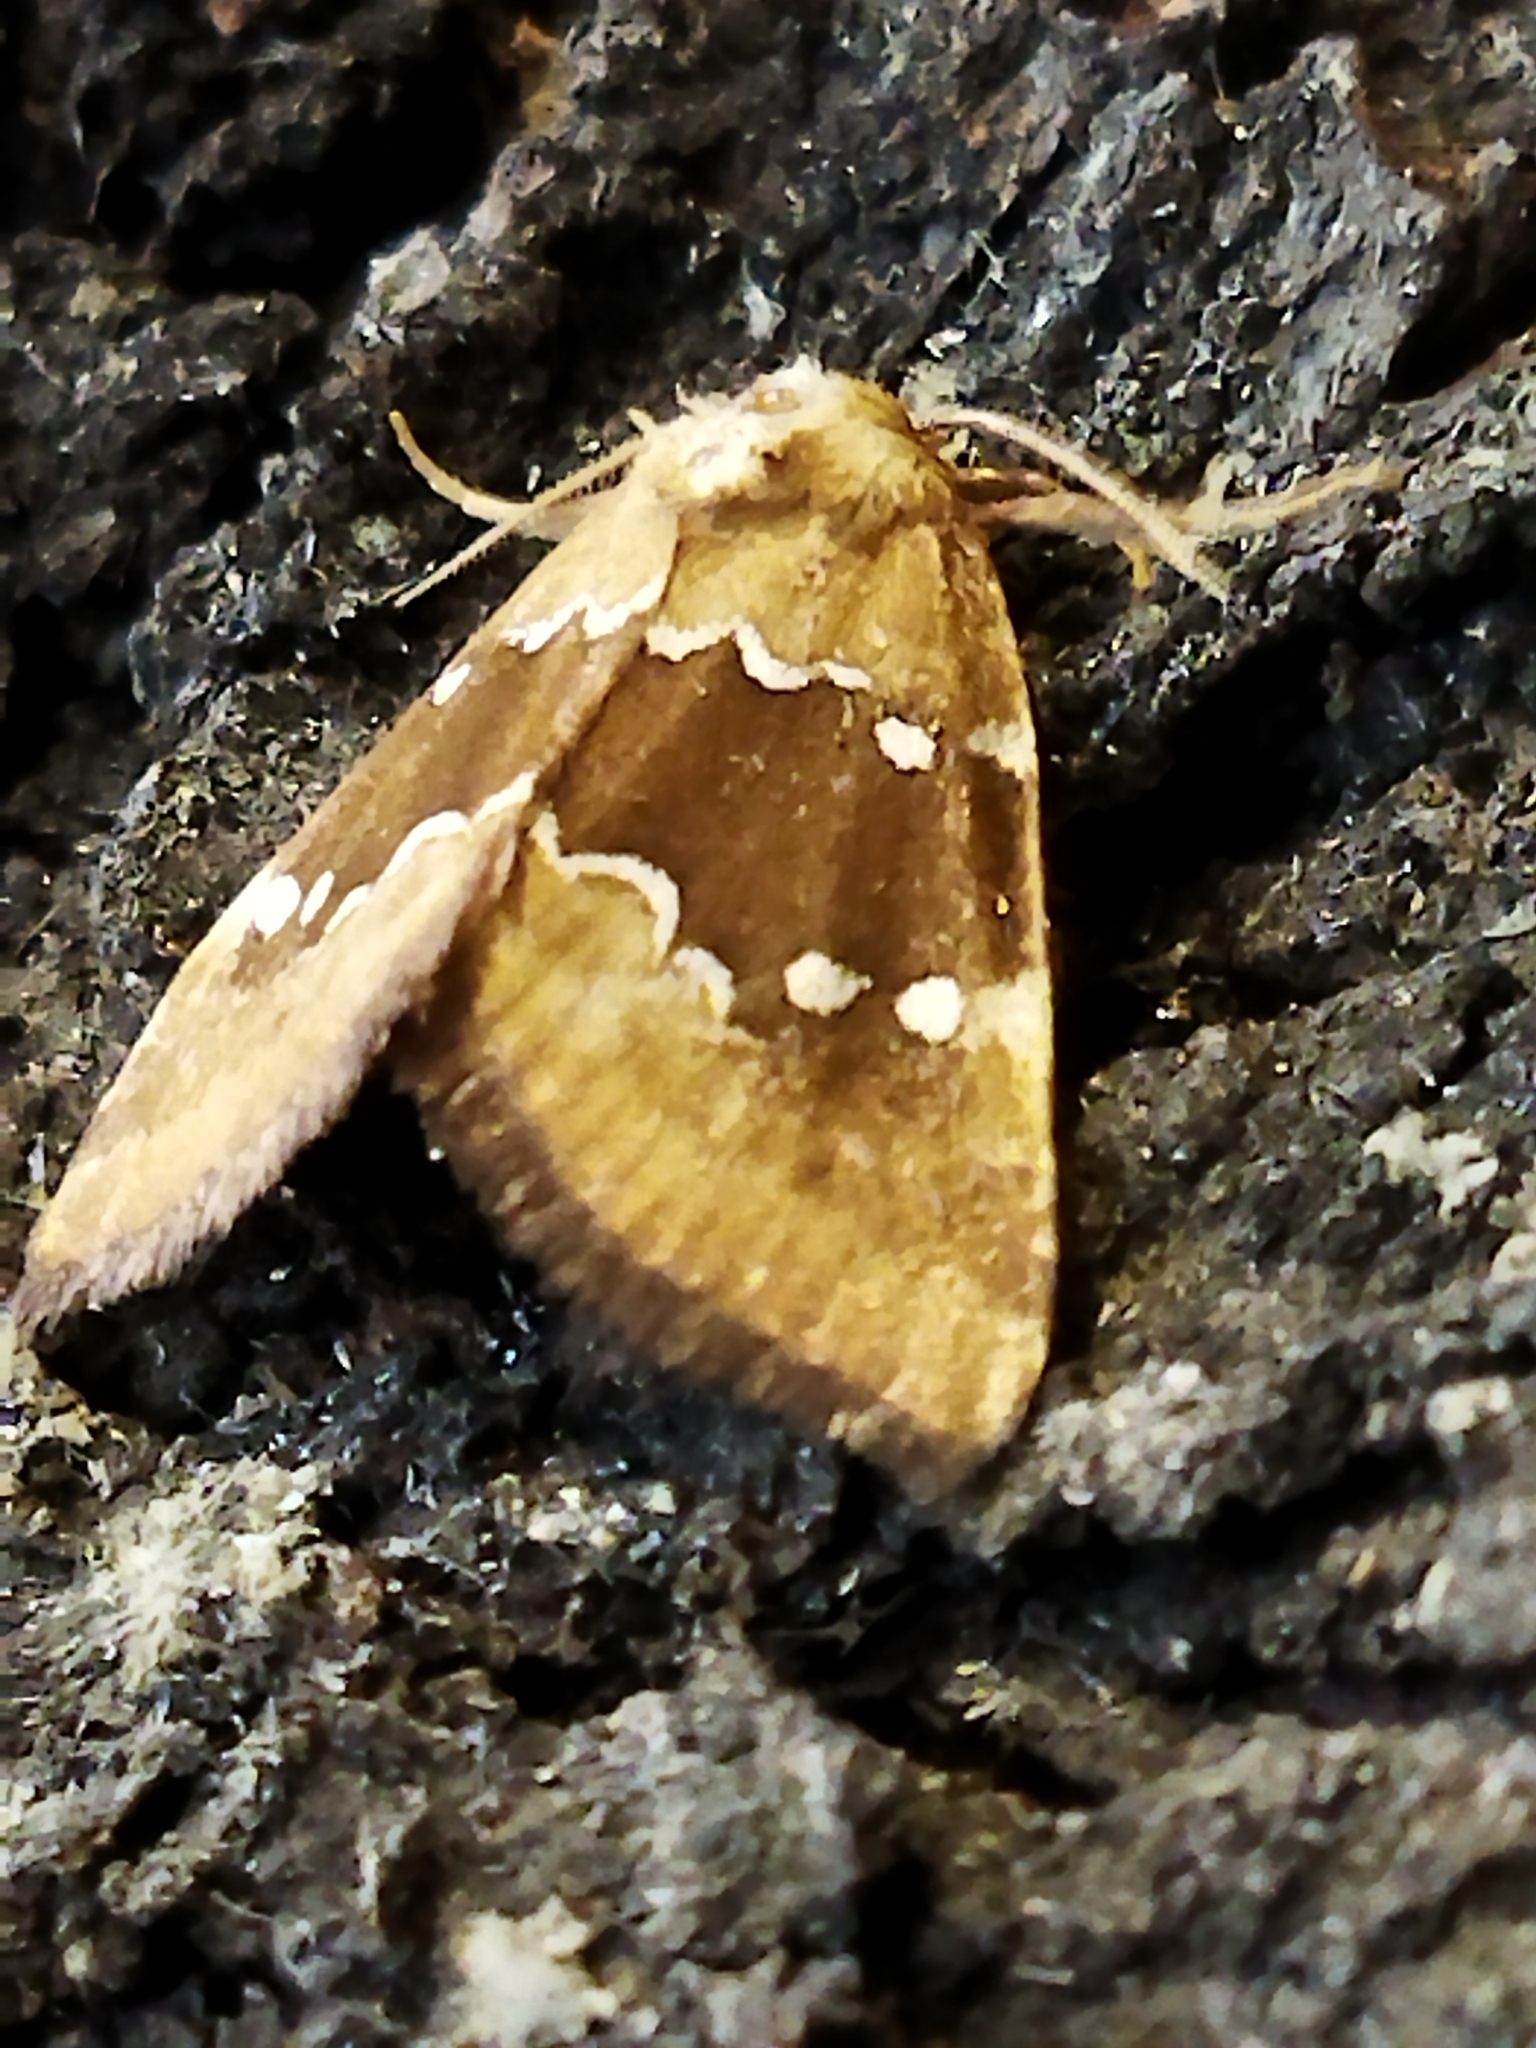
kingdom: Animalia
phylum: Arthropoda
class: Insecta
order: Lepidoptera
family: Noctuidae
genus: Haemerosia
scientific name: Haemerosia vassilininei
